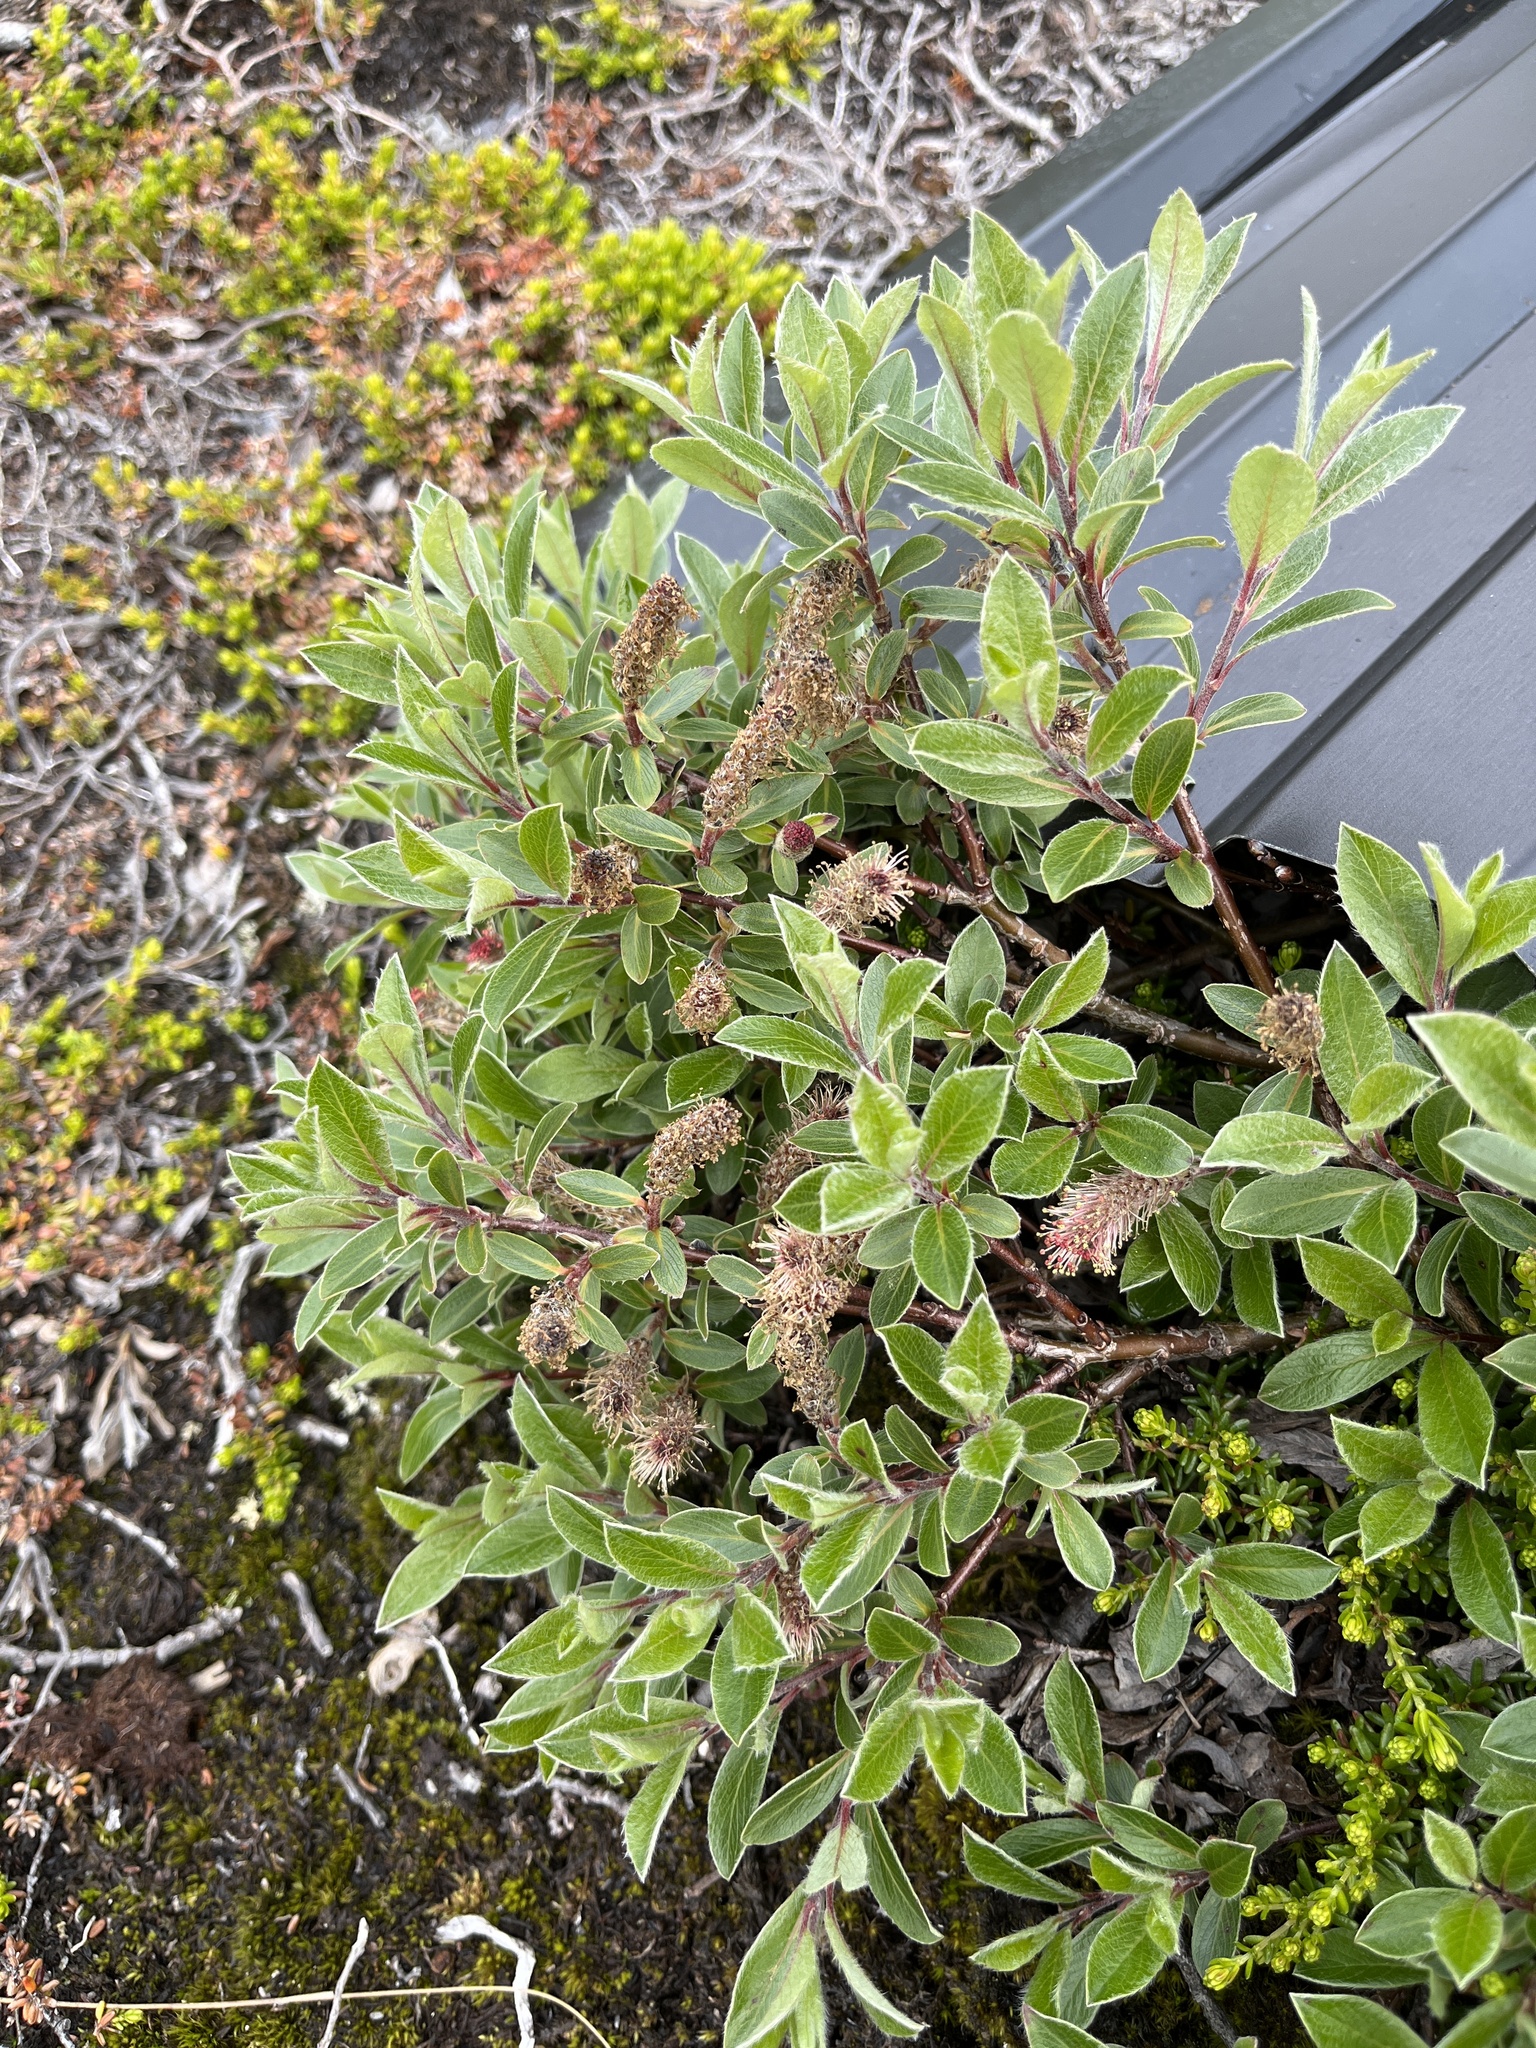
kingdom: Plantae
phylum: Tracheophyta
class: Magnoliopsida
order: Malpighiales
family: Salicaceae
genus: Salix
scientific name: Salix glauca
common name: Glaucous willow
